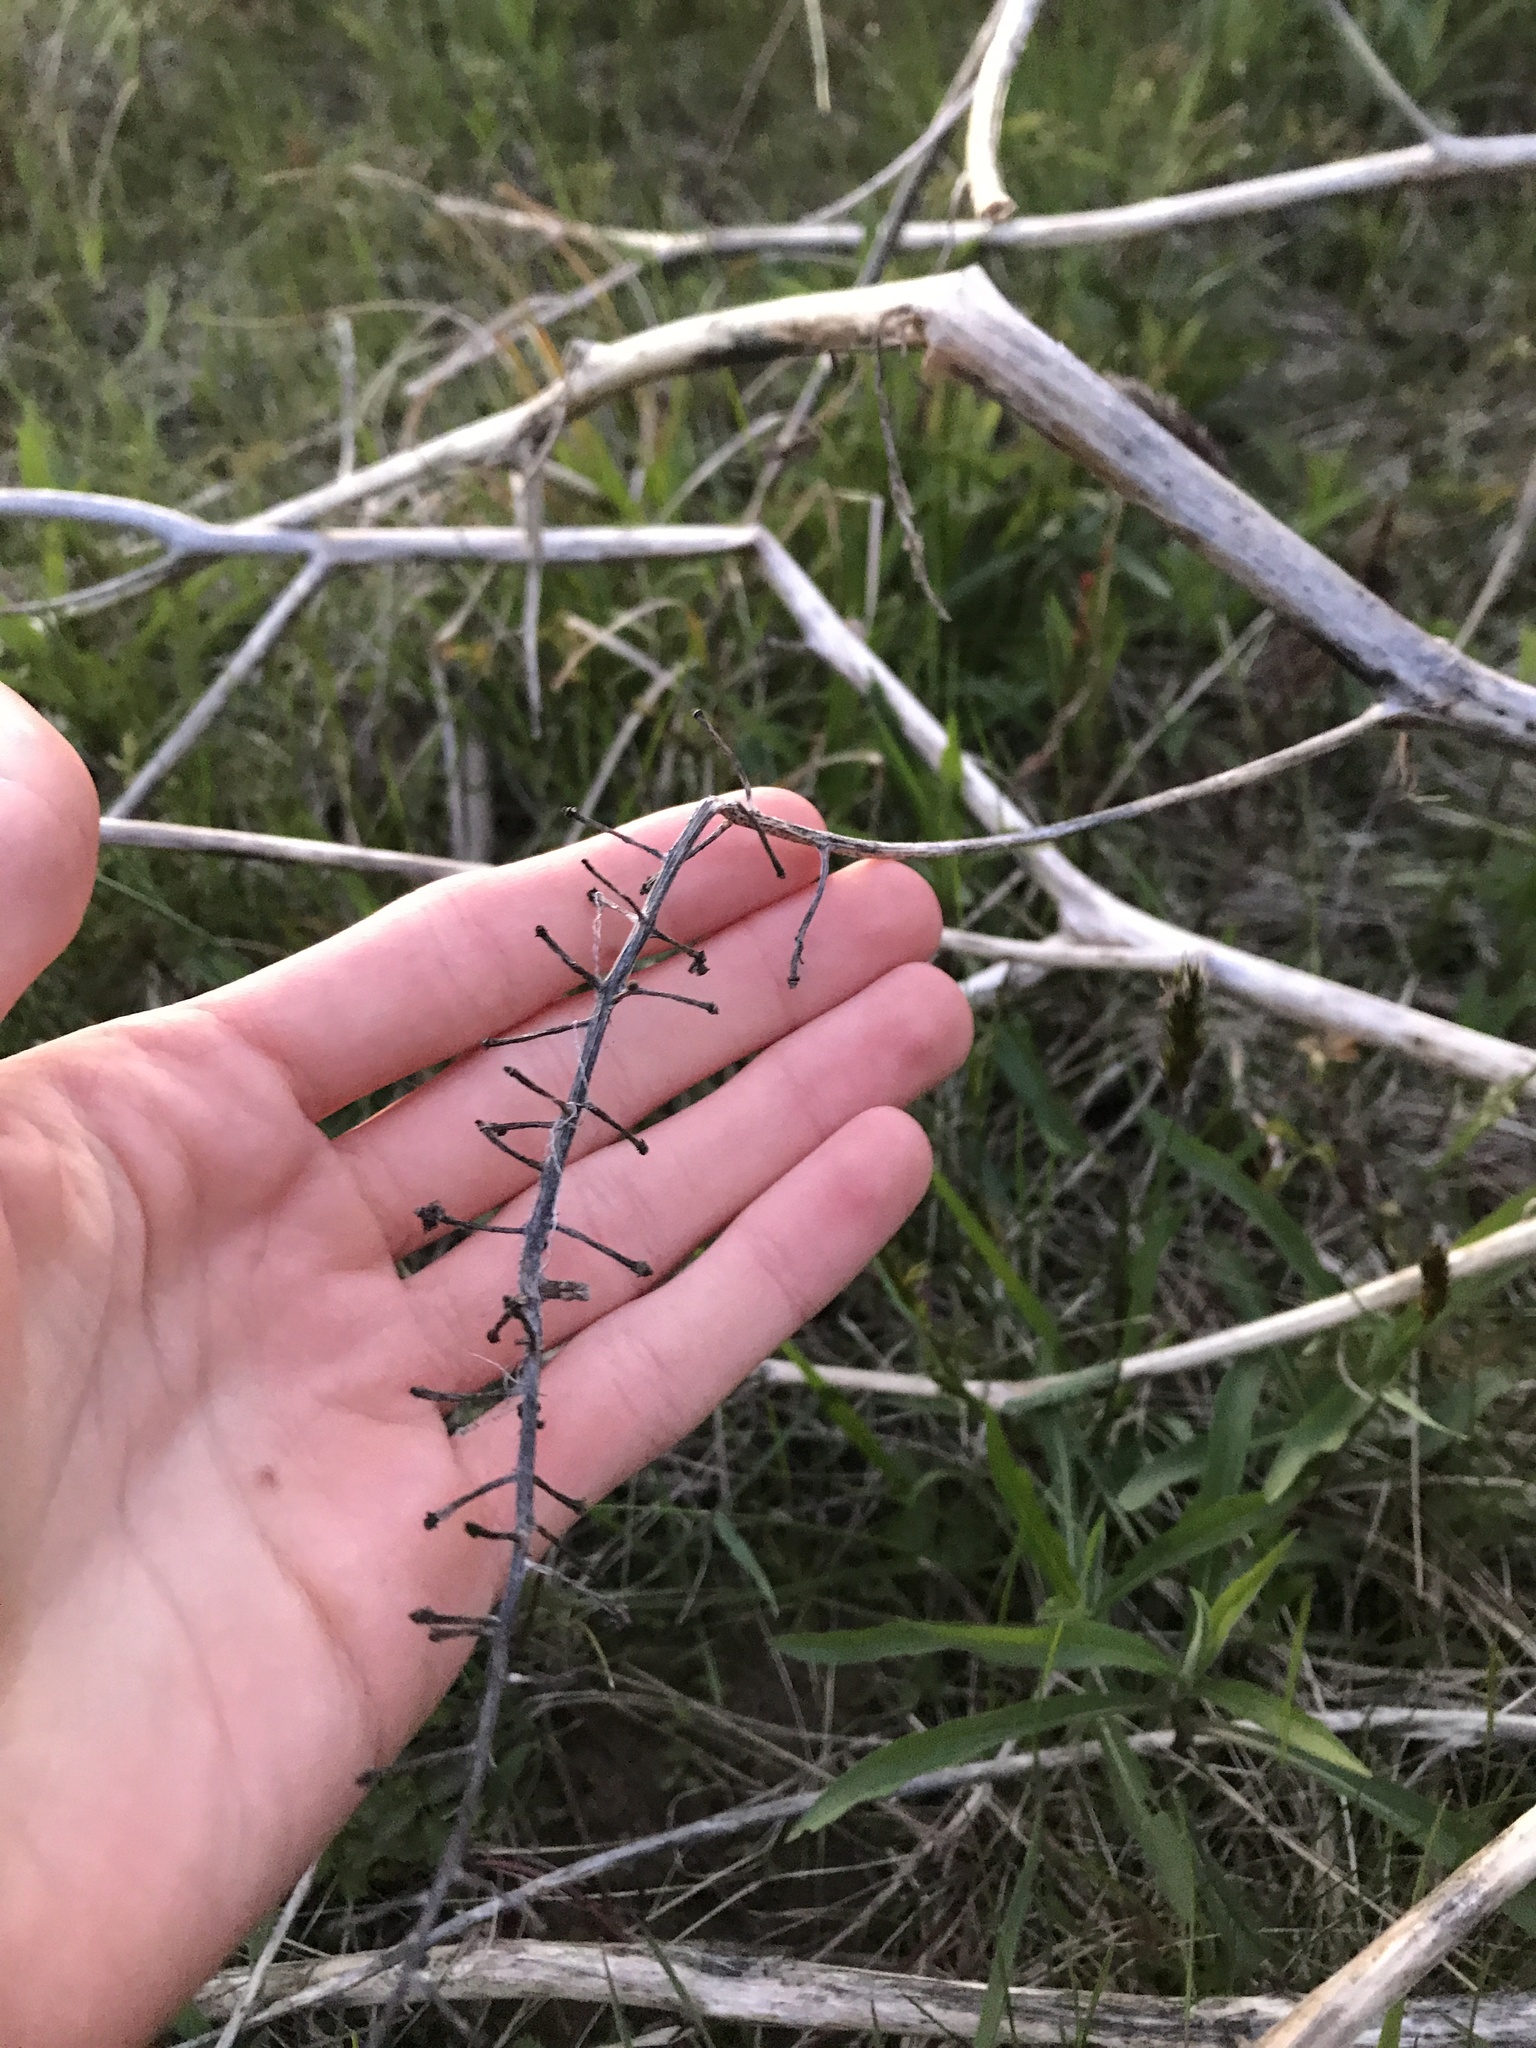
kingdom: Plantae
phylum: Tracheophyta
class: Magnoliopsida
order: Caryophyllales
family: Phytolaccaceae
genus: Phytolacca
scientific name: Phytolacca americana
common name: American pokeweed
